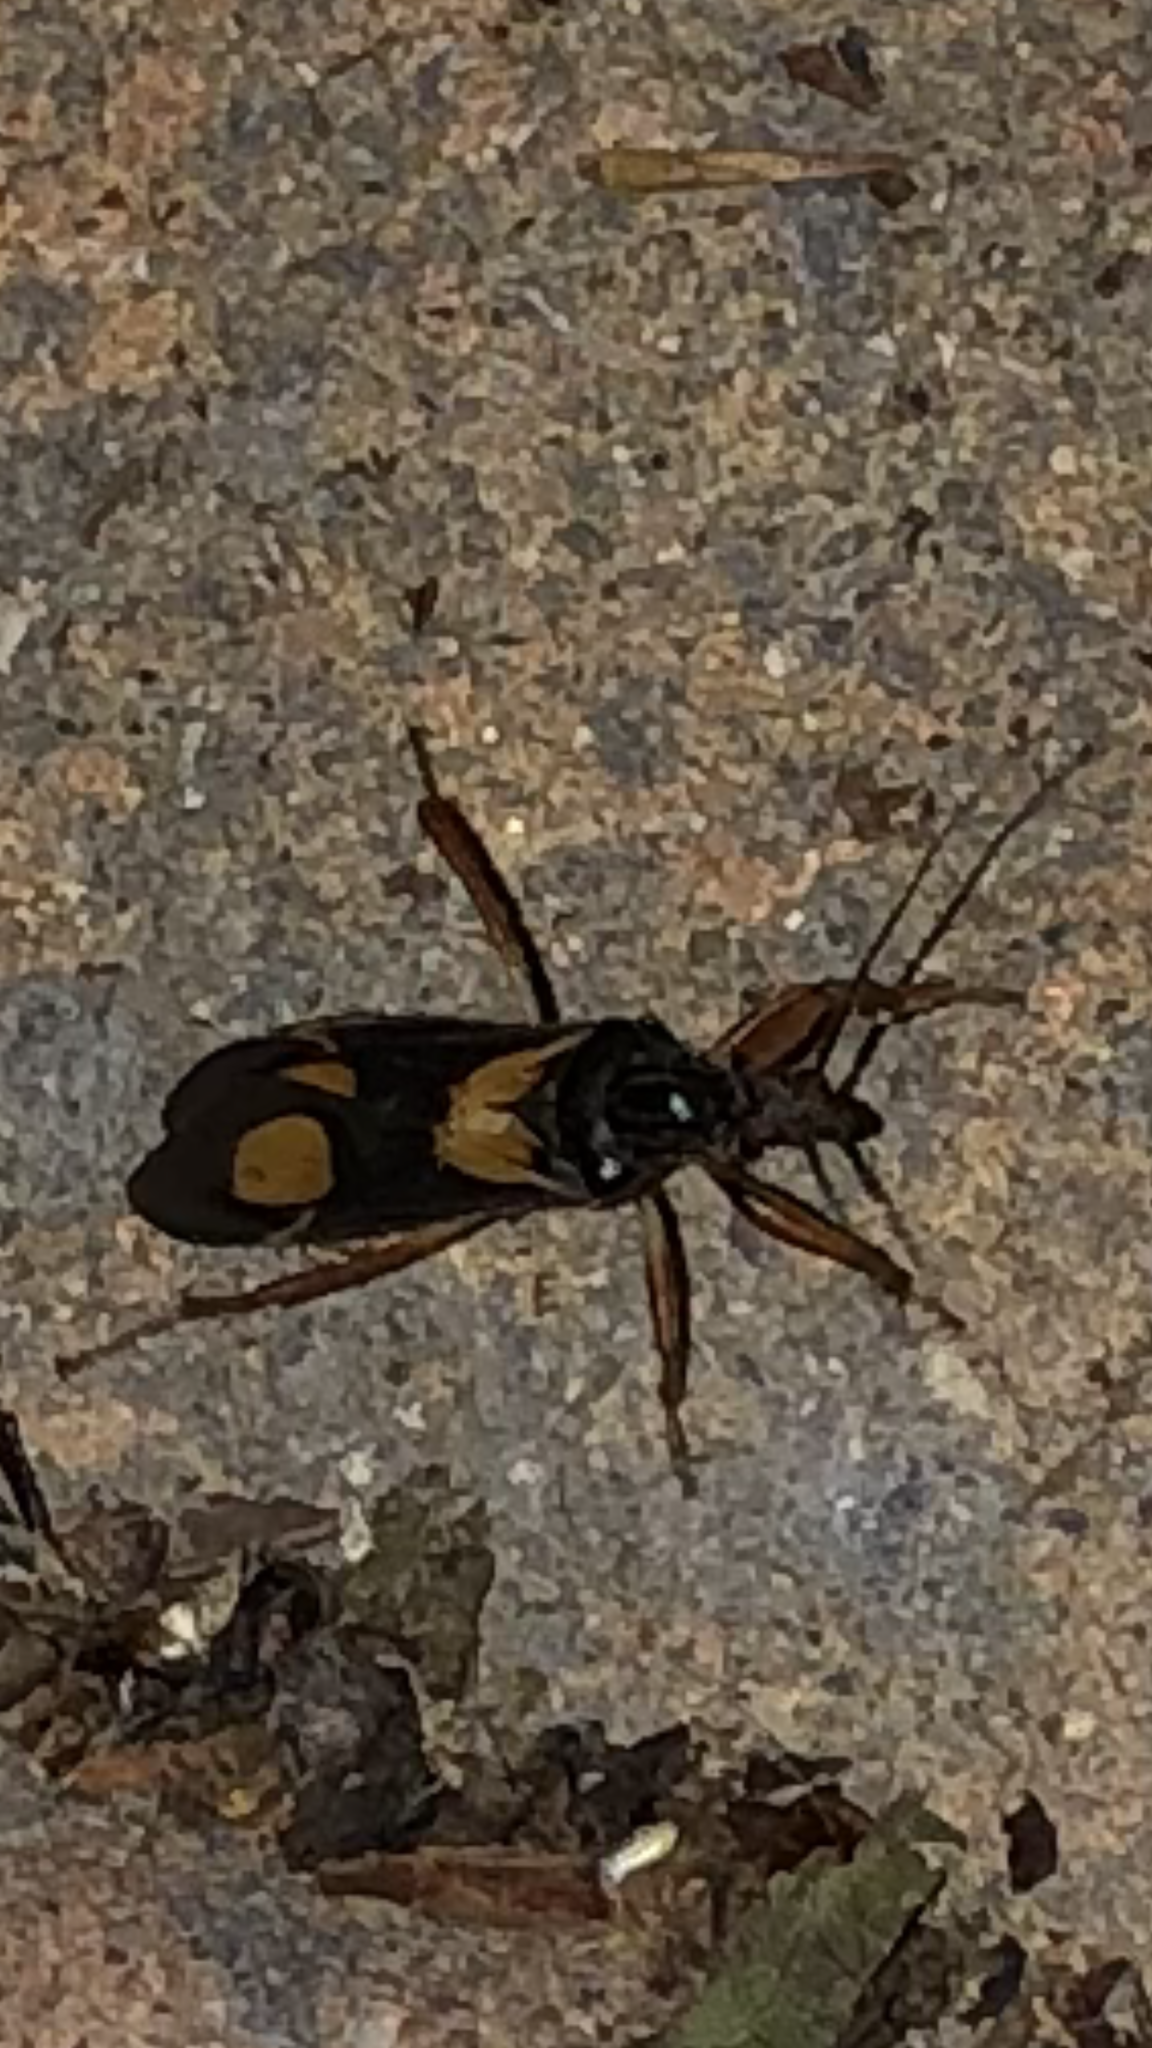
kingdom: Animalia
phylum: Arthropoda
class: Insecta
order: Hemiptera
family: Reduviidae
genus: Rasahus
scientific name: Rasahus hamatus
